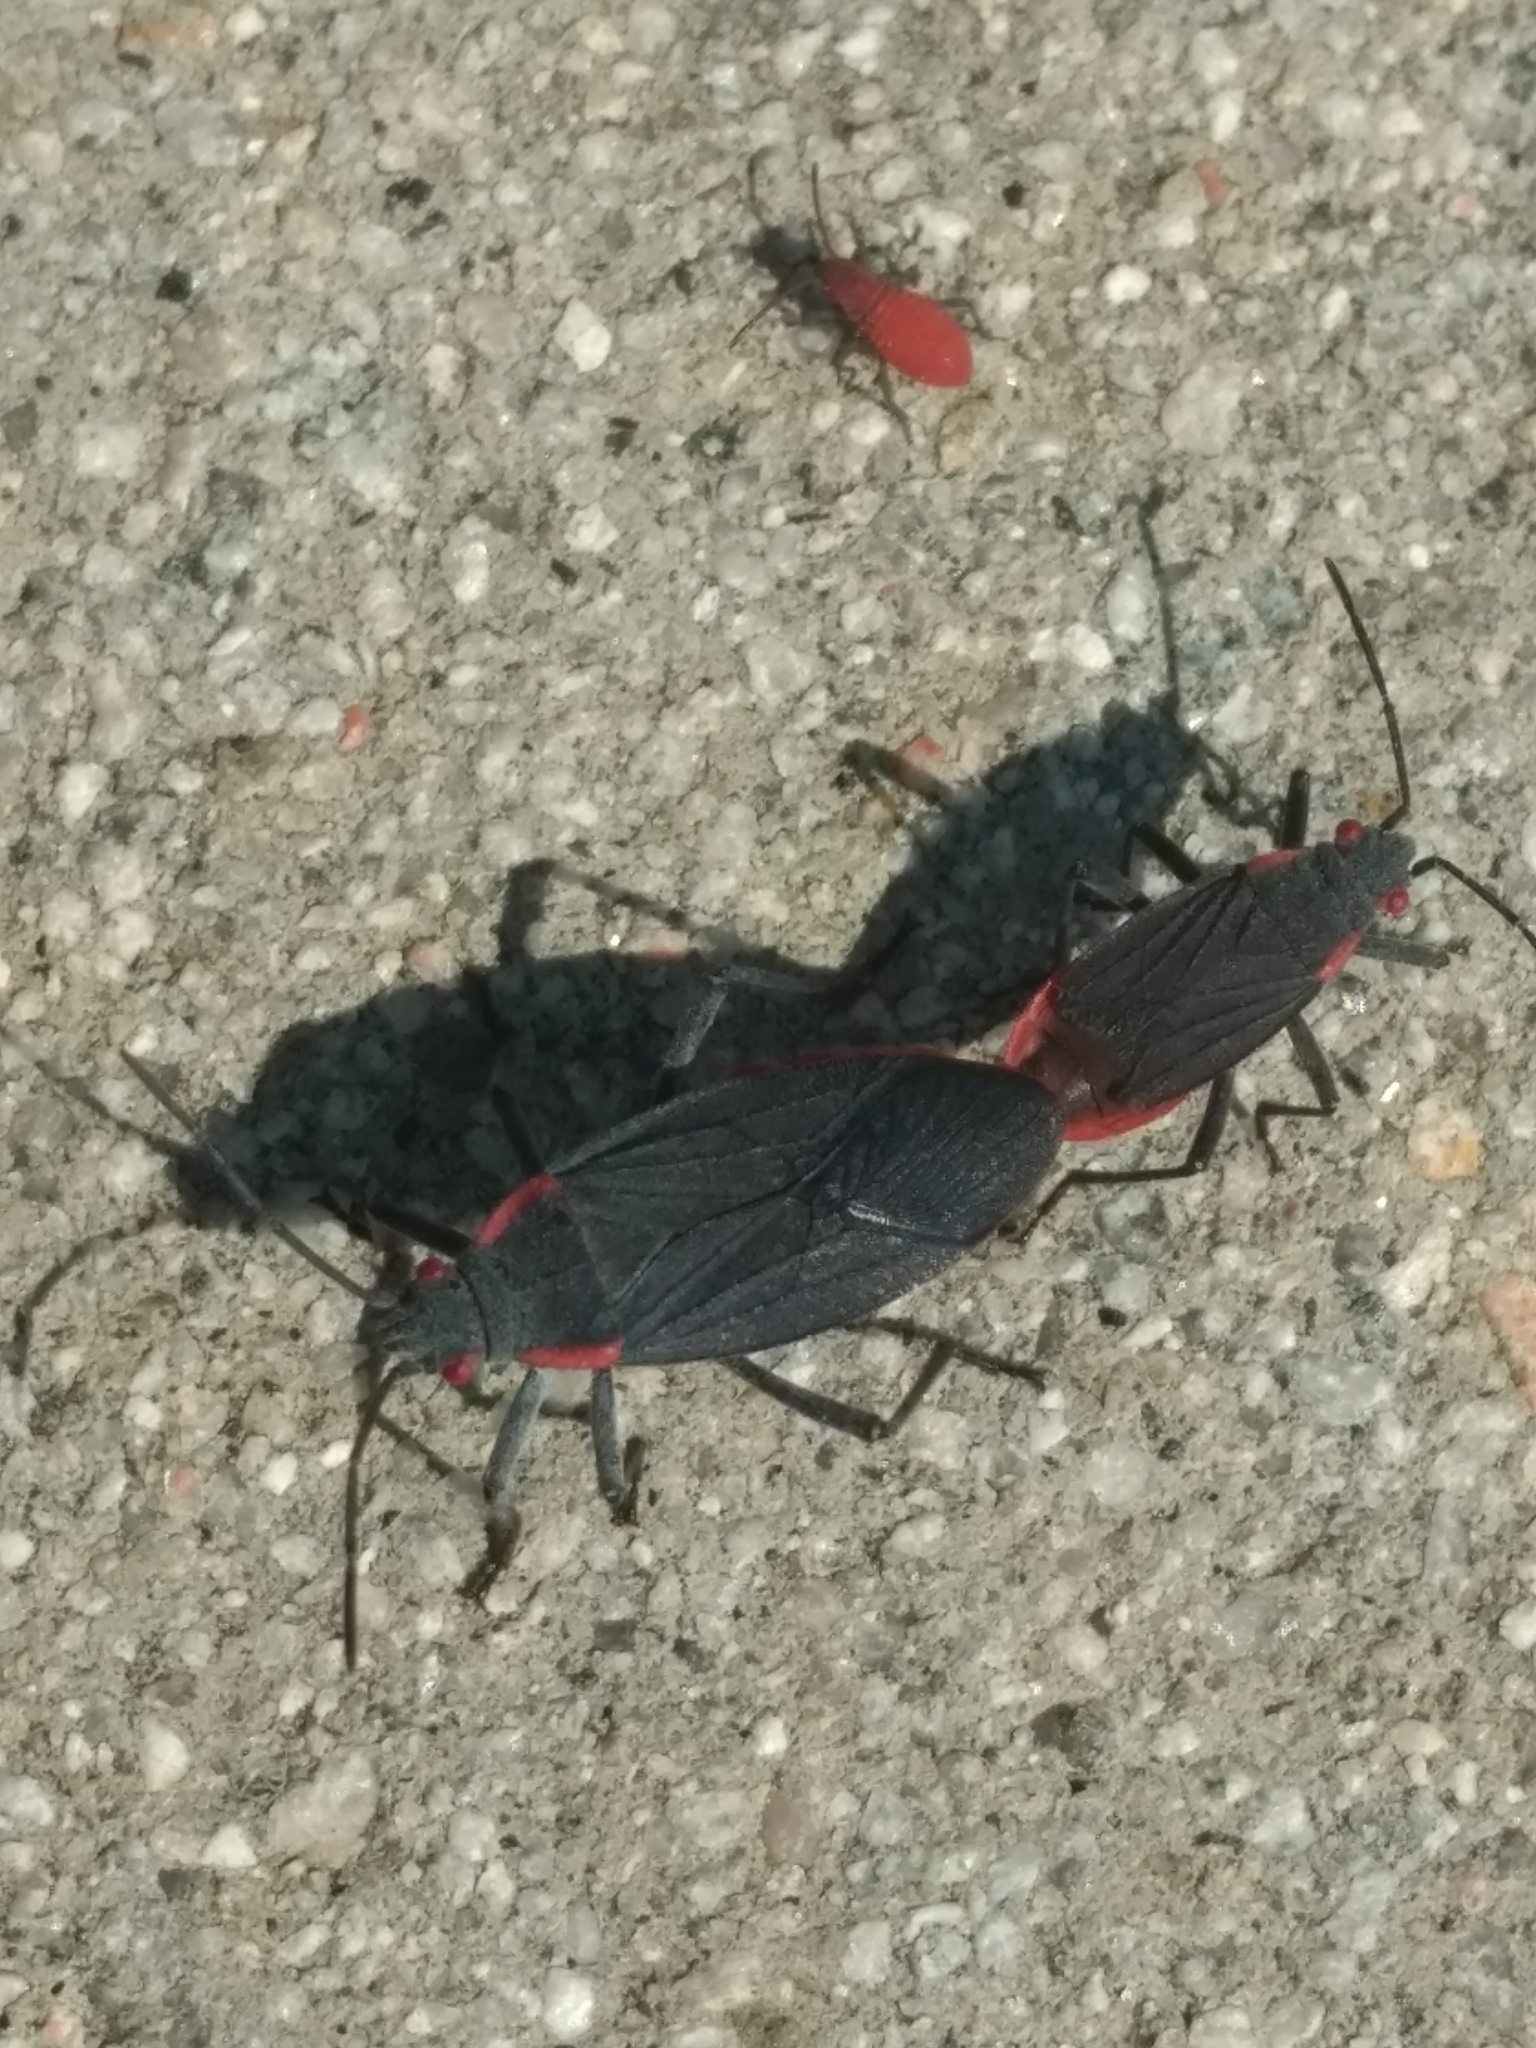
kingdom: Animalia
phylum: Arthropoda
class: Insecta
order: Hemiptera
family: Rhopalidae
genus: Jadera
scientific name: Jadera haematoloma
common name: Red-shouldered bug
